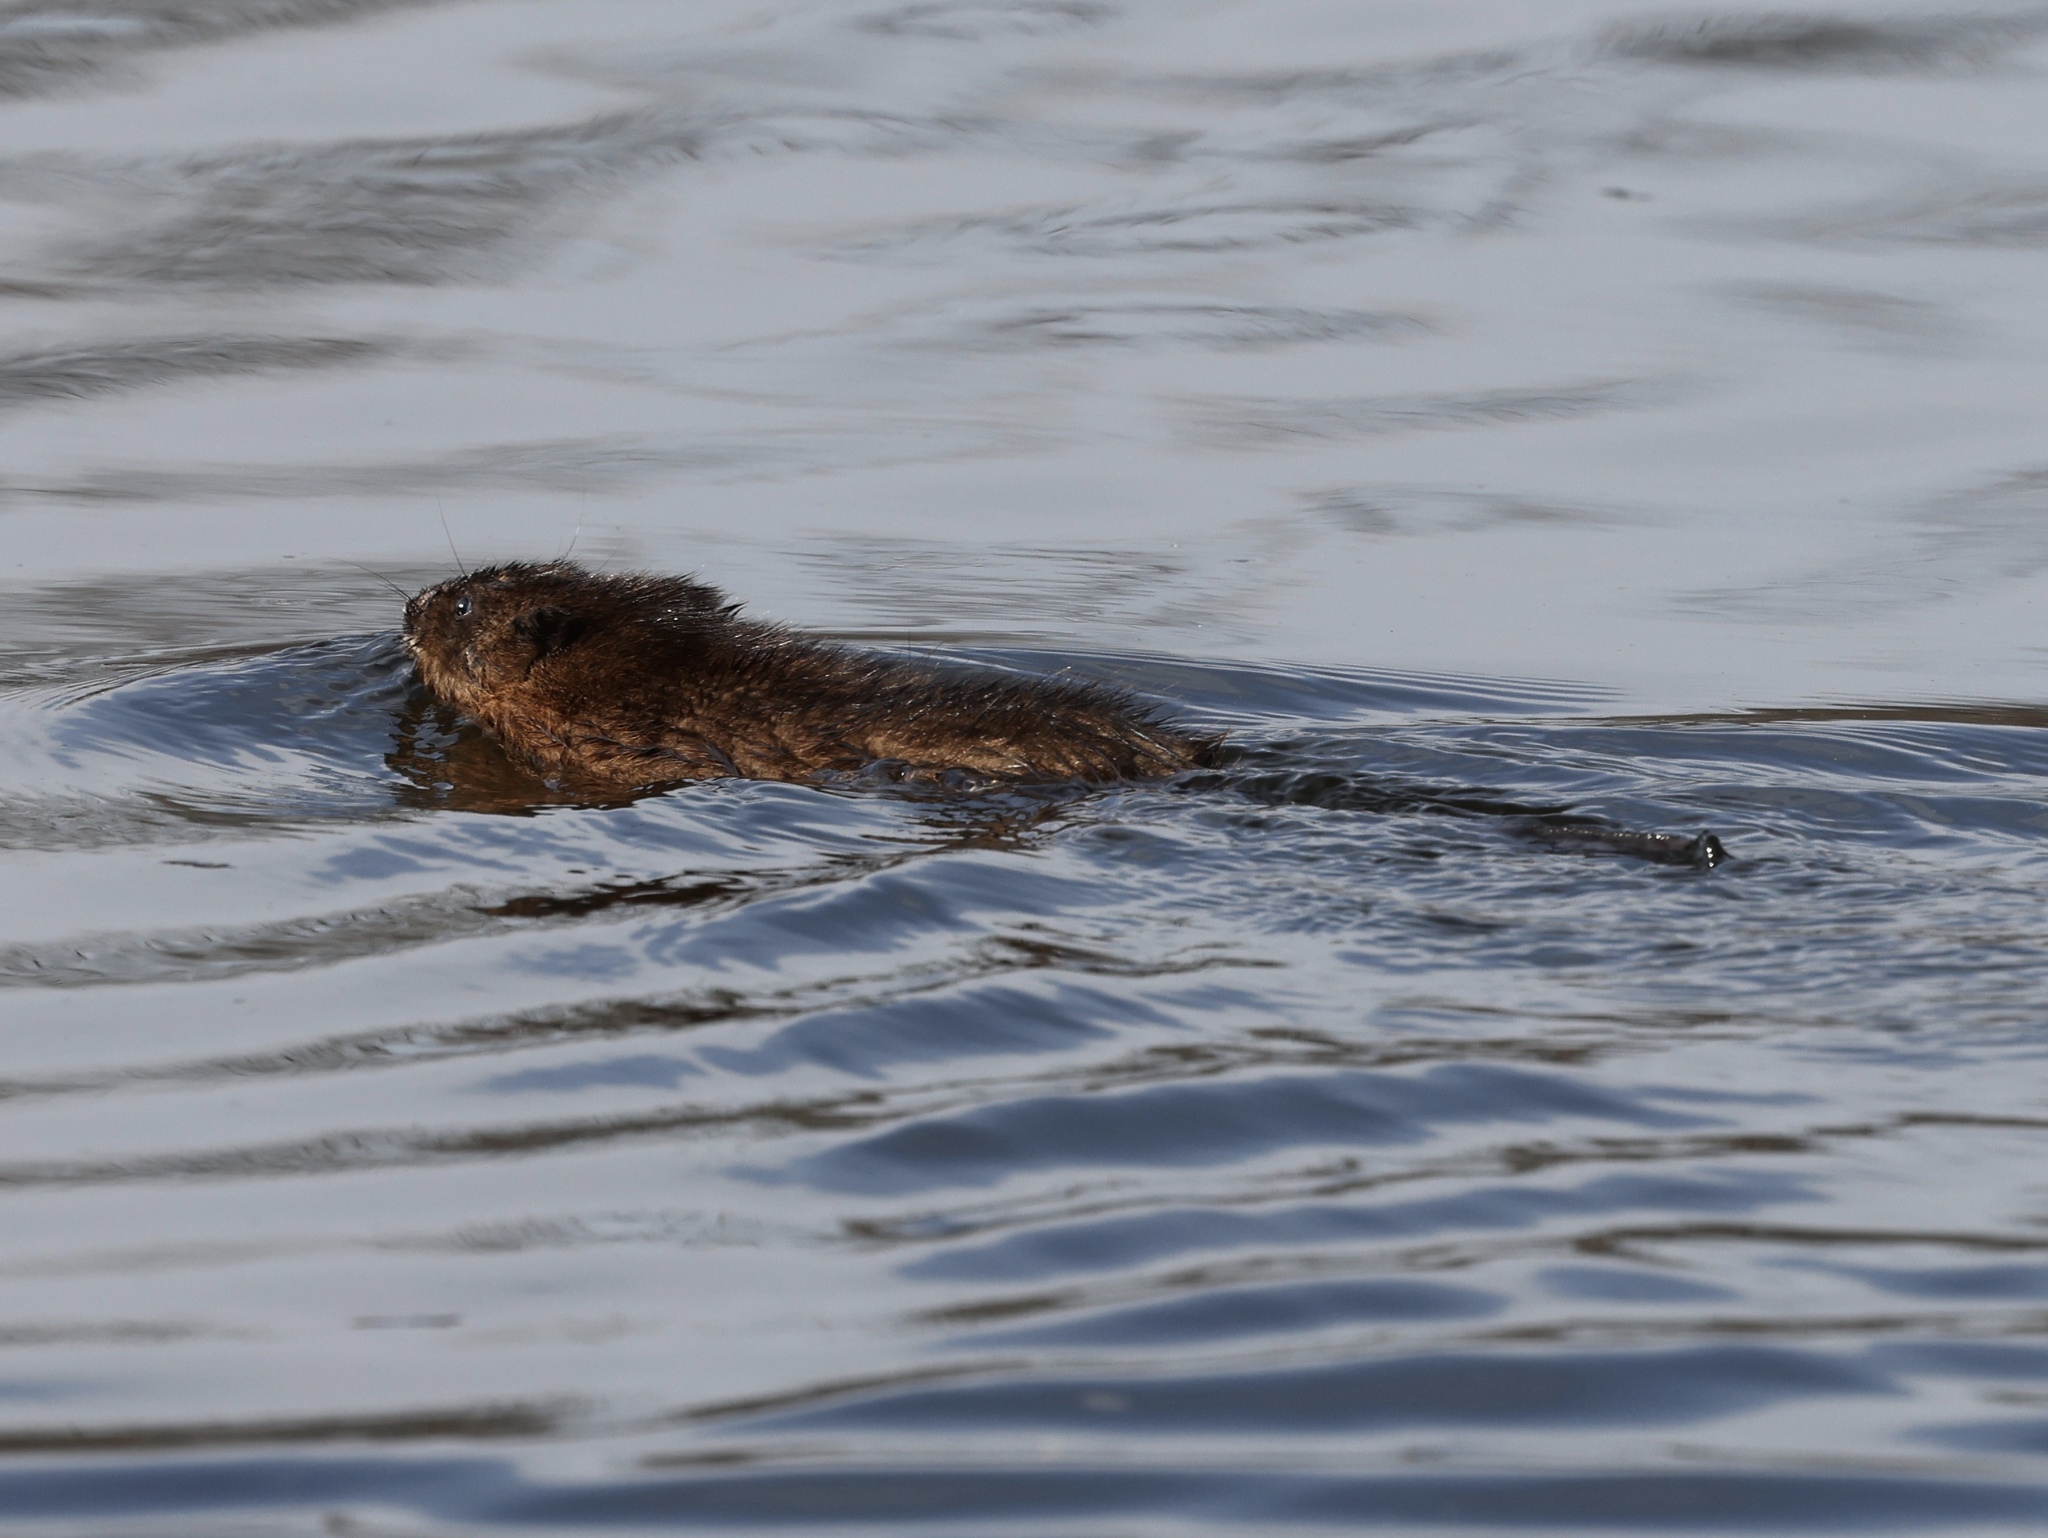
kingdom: Animalia
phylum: Chordata
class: Mammalia
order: Rodentia
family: Cricetidae
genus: Ondatra
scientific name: Ondatra zibethicus
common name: Muskrat
